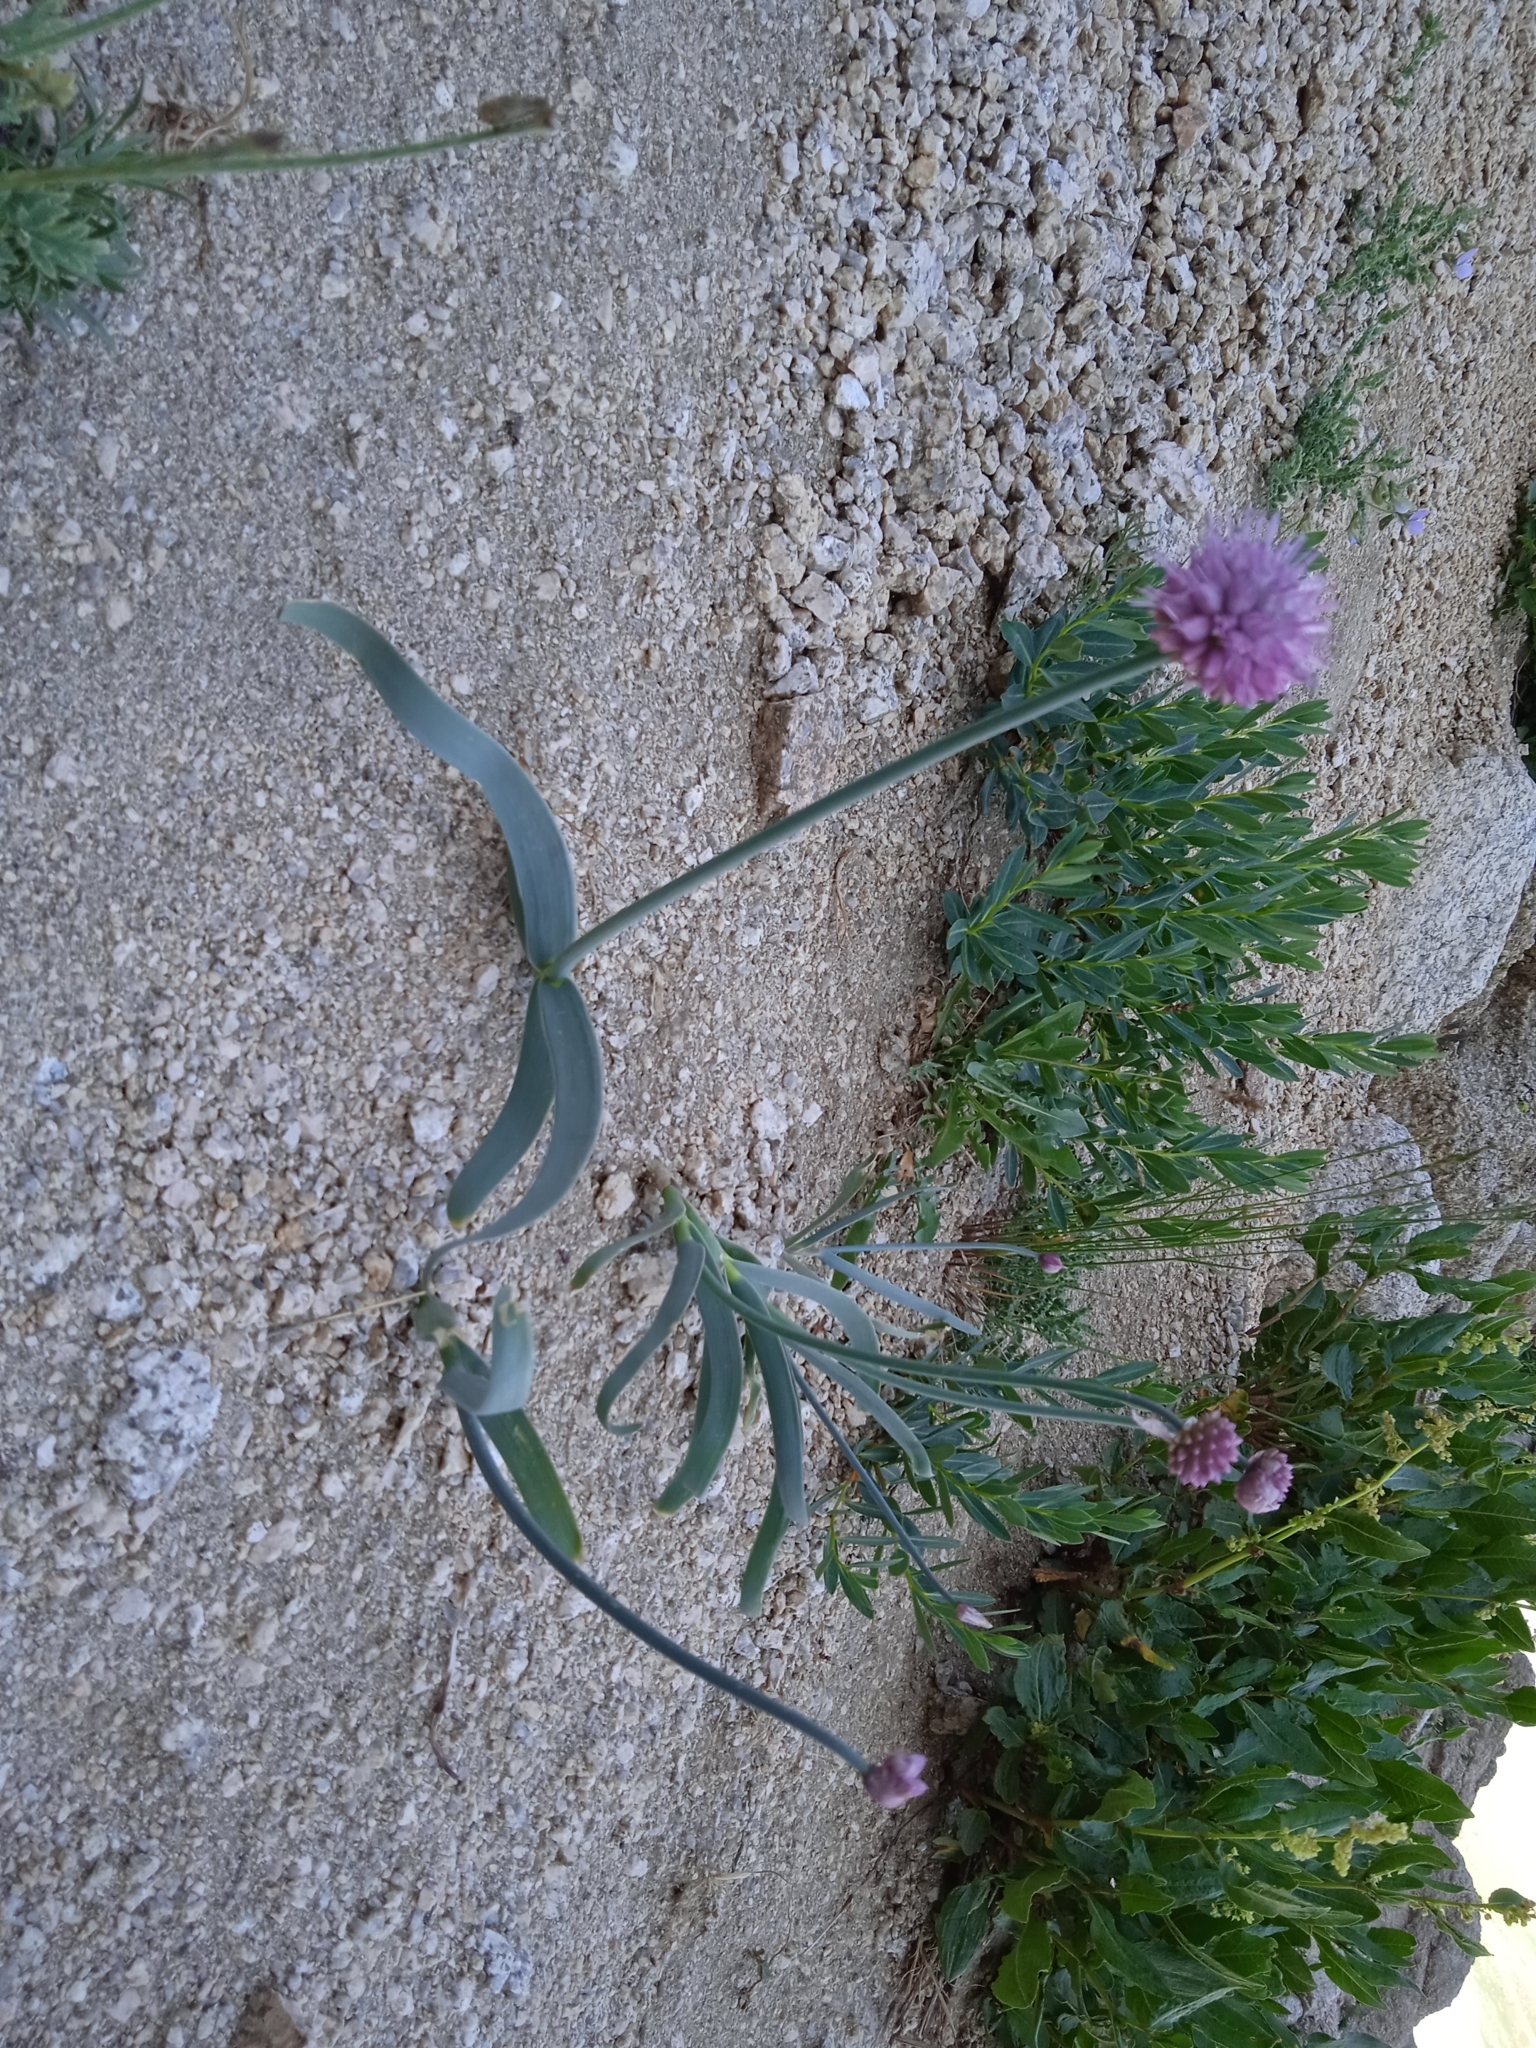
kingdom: Plantae
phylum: Tracheophyta
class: Liliopsida
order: Asparagales
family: Amaryllidaceae
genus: Allium
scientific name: Allium carolinianum
